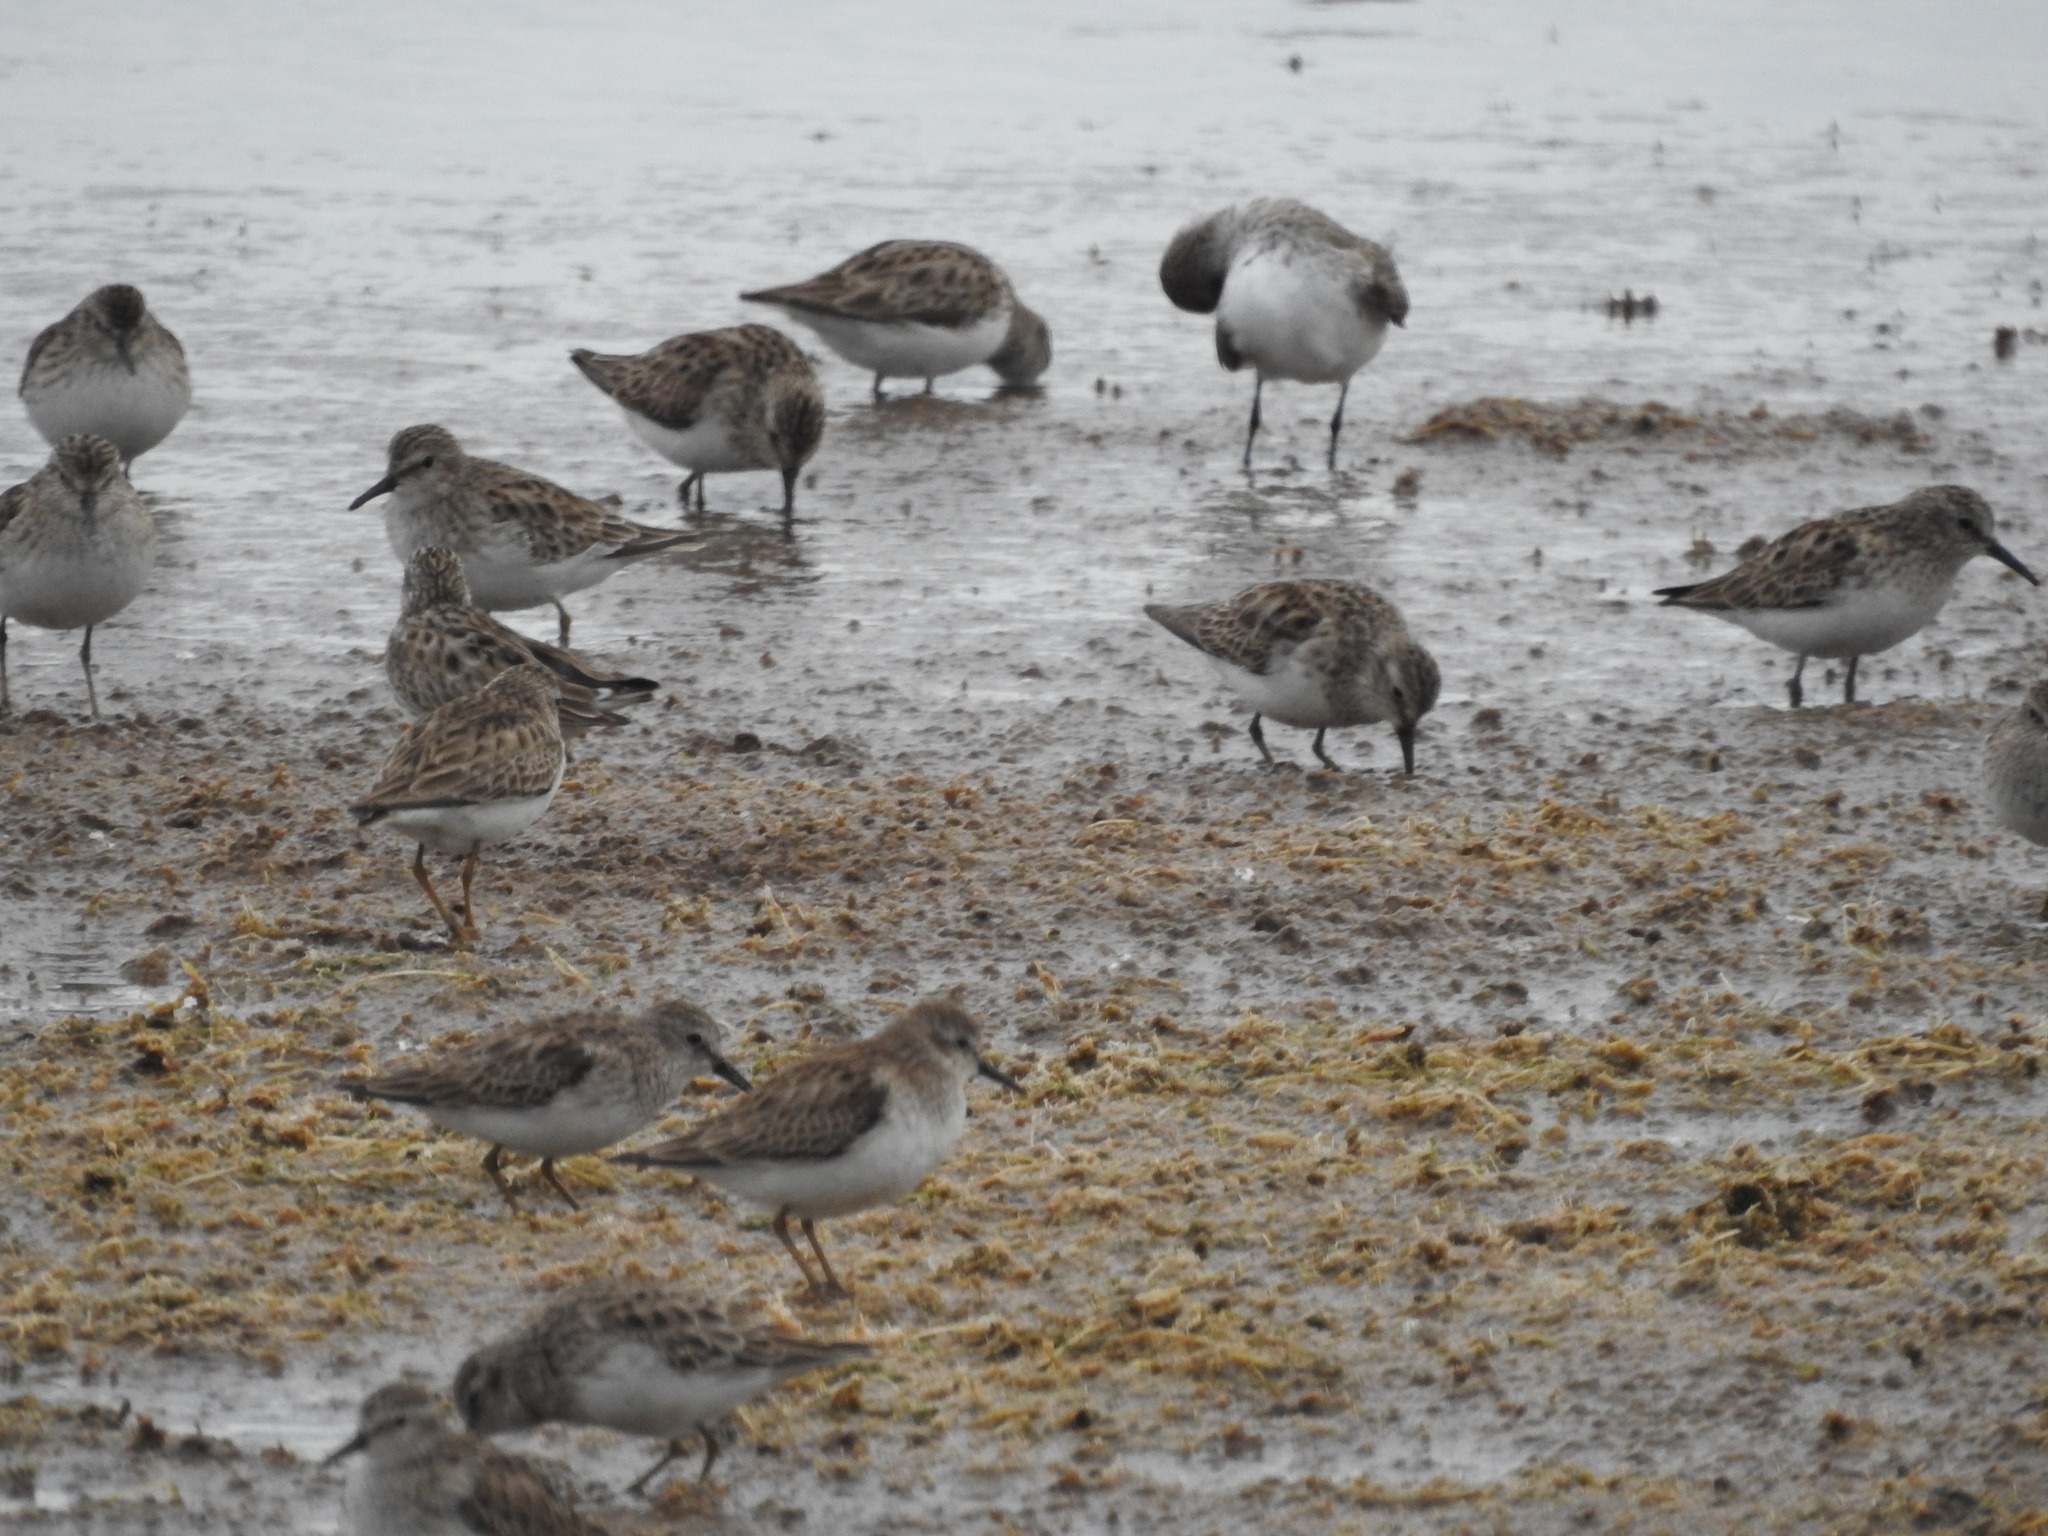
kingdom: Animalia
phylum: Chordata
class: Aves
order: Charadriiformes
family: Scolopacidae
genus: Calidris
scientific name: Calidris minutilla
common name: Least sandpiper
